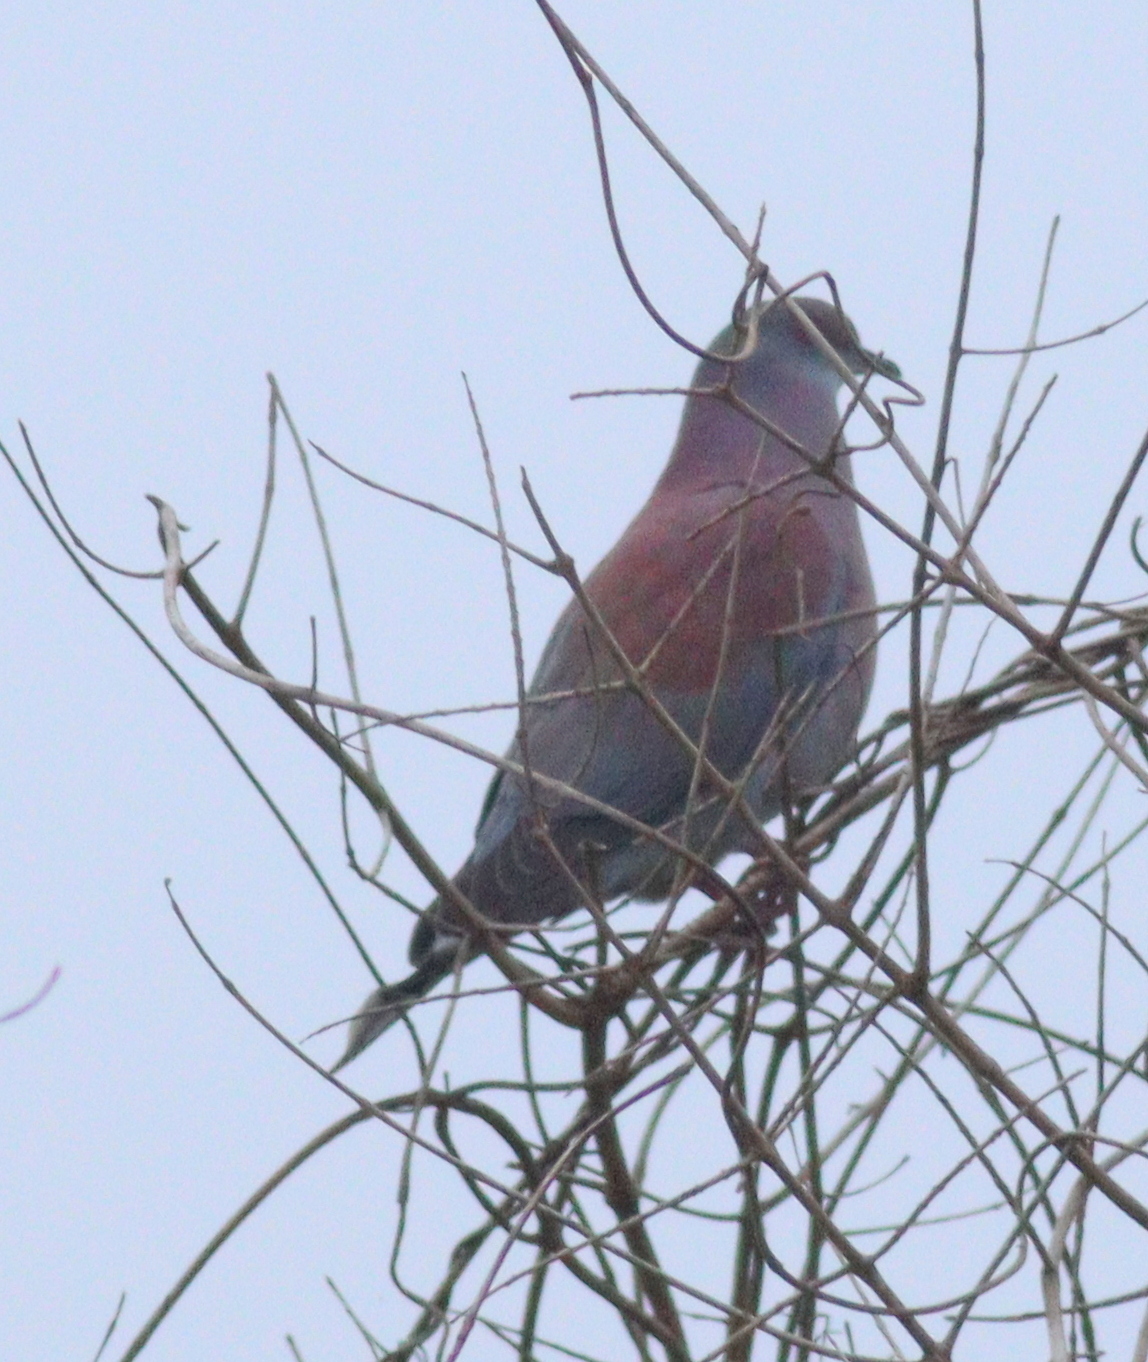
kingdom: Animalia
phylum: Chordata
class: Aves
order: Columbiformes
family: Columbidae
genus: Patagioenas
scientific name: Patagioenas cayennensis
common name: Pale-vented pigeon
